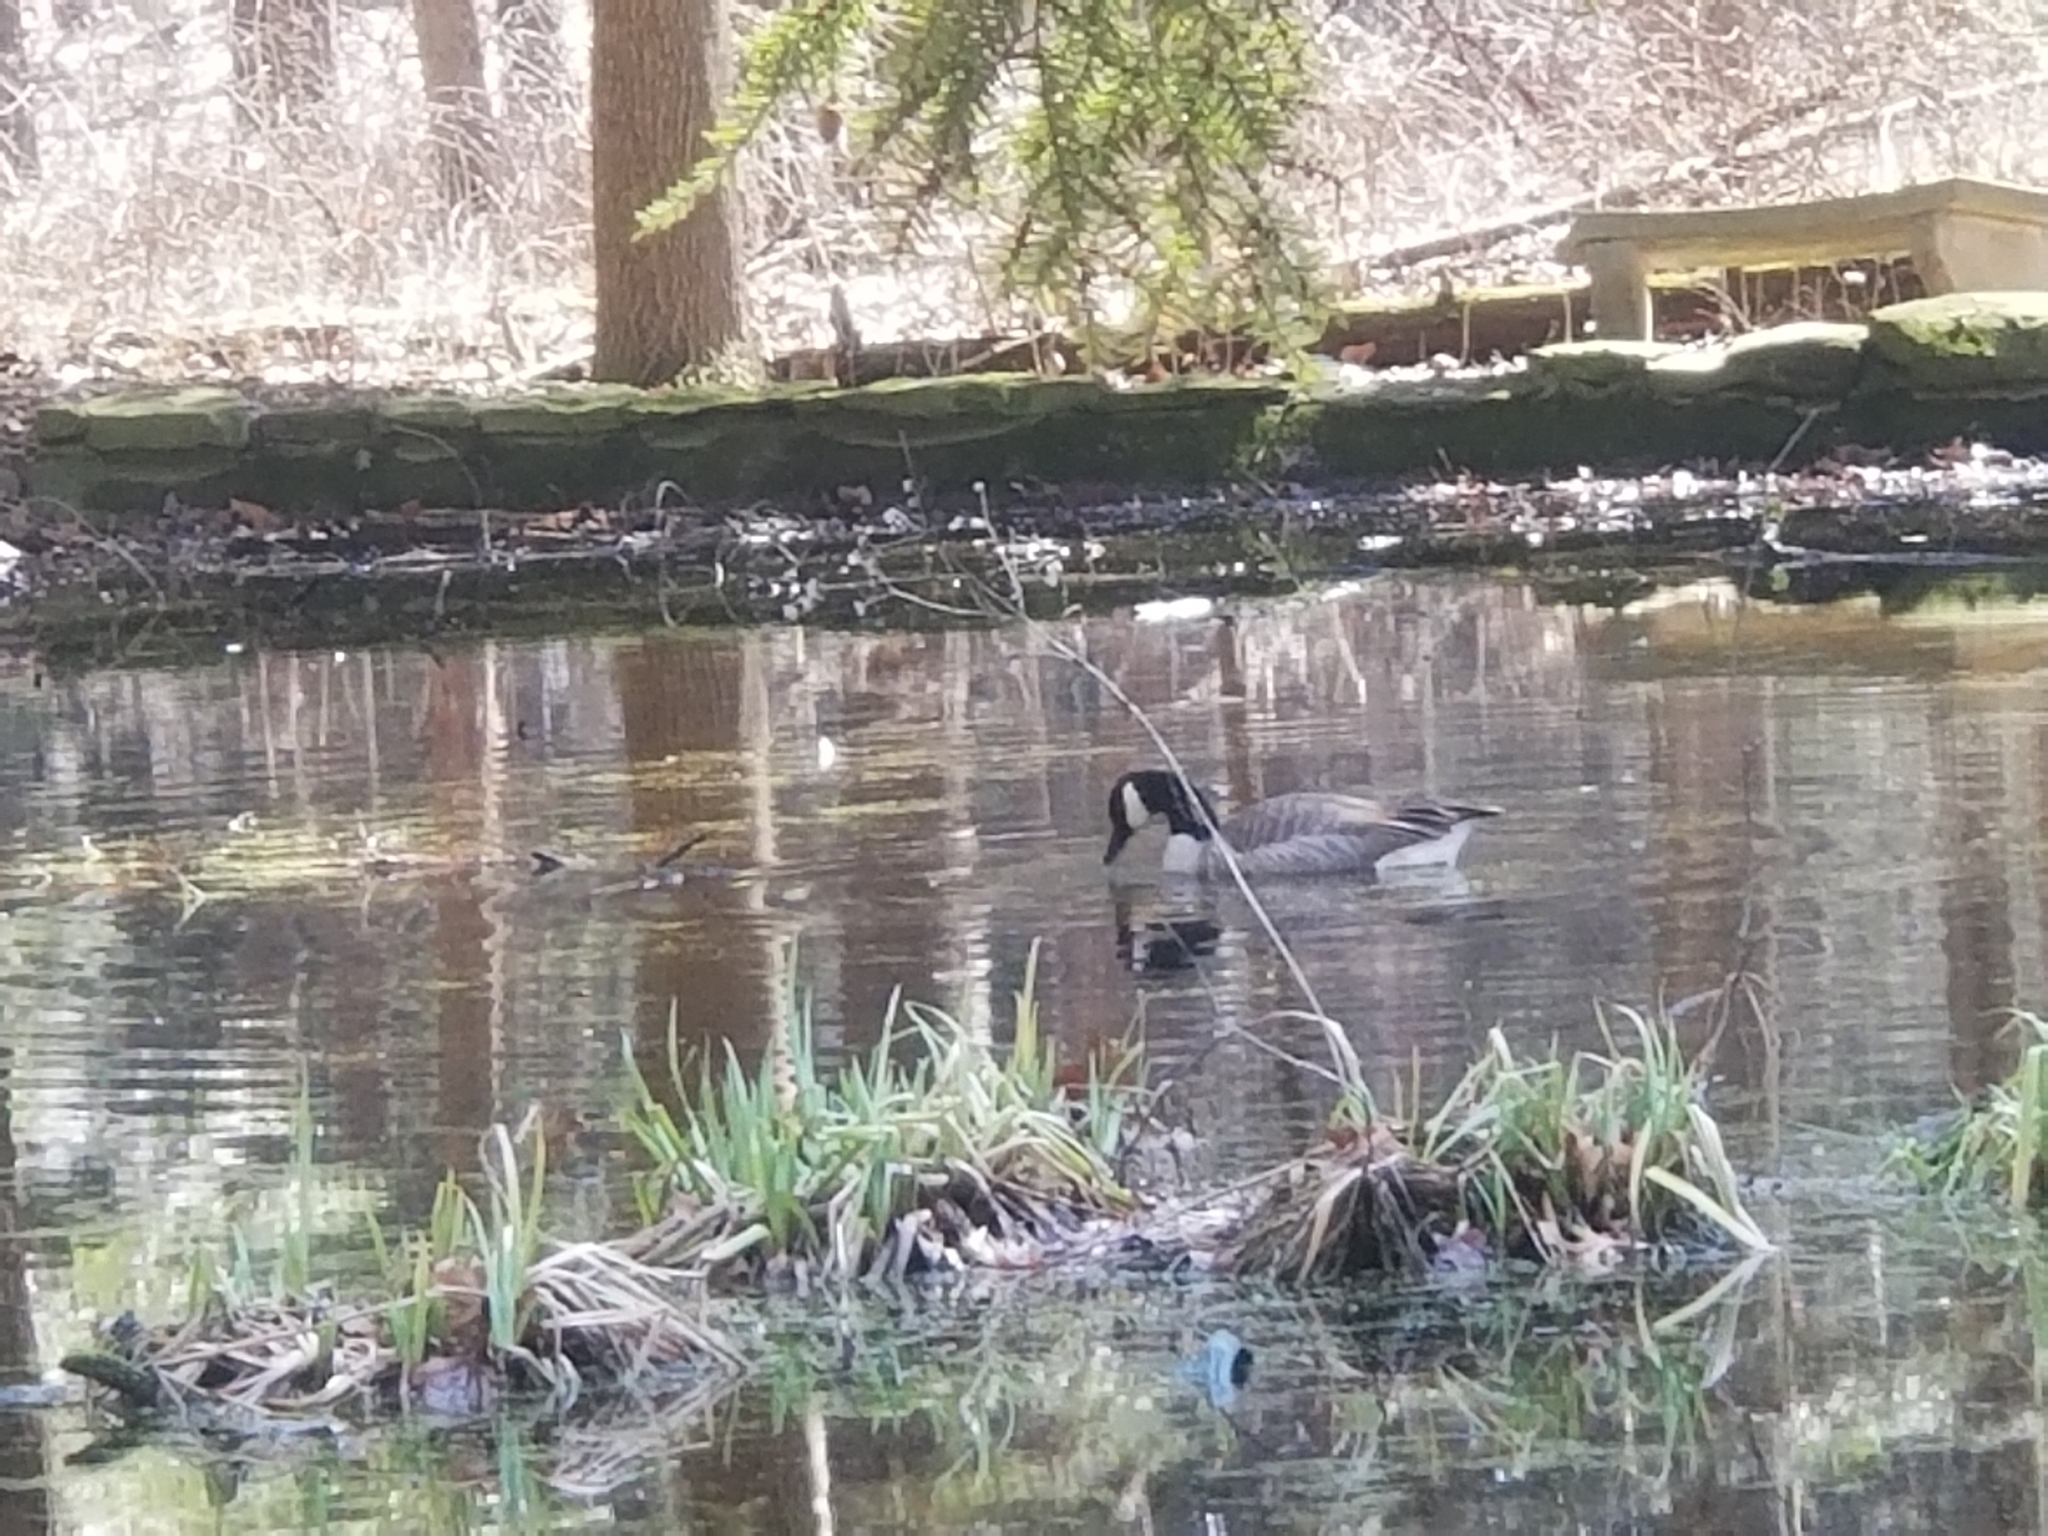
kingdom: Animalia
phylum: Chordata
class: Aves
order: Anseriformes
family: Anatidae
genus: Branta
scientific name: Branta canadensis
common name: Canada goose
